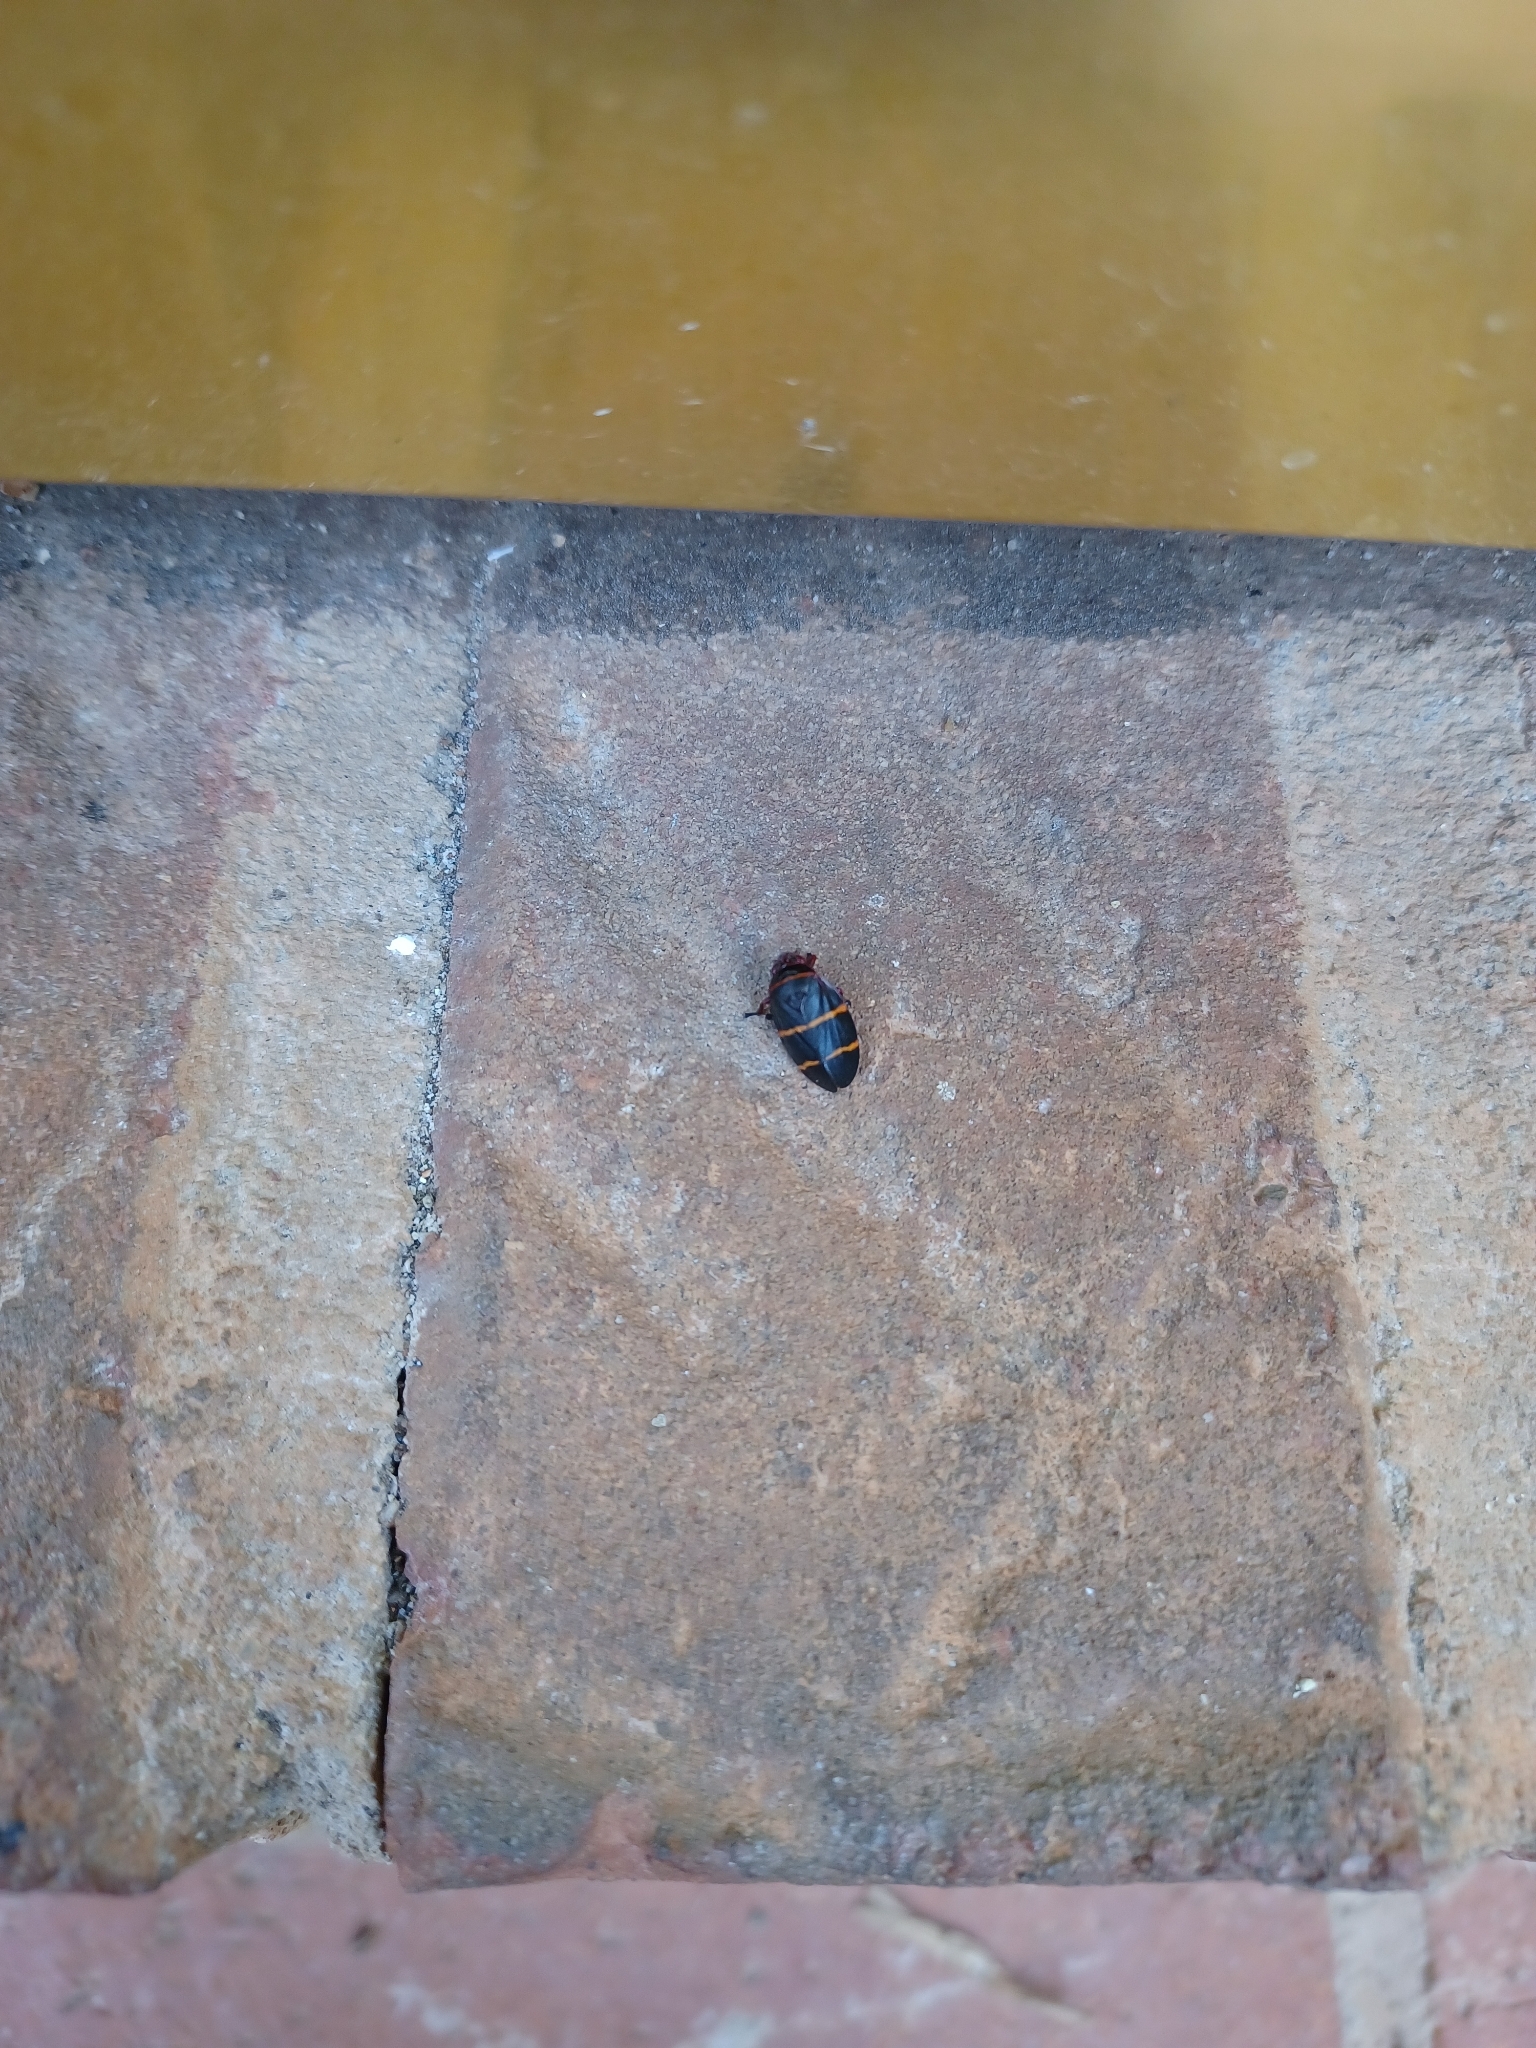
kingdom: Animalia
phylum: Arthropoda
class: Insecta
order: Hemiptera
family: Cercopidae
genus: Prosapia
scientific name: Prosapia bicincta
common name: Twolined spittlebug
